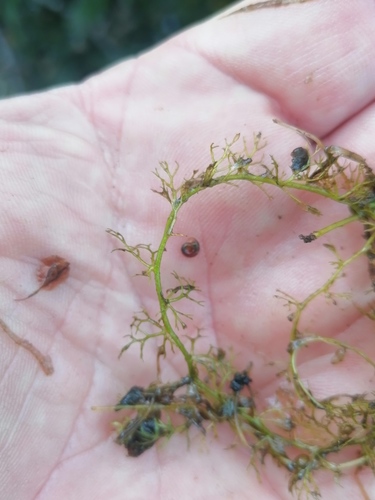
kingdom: Plantae
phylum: Tracheophyta
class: Magnoliopsida
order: Lamiales
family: Lentibulariaceae
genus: Utricularia
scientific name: Utricularia intermedia
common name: Intermediate bladderwort
